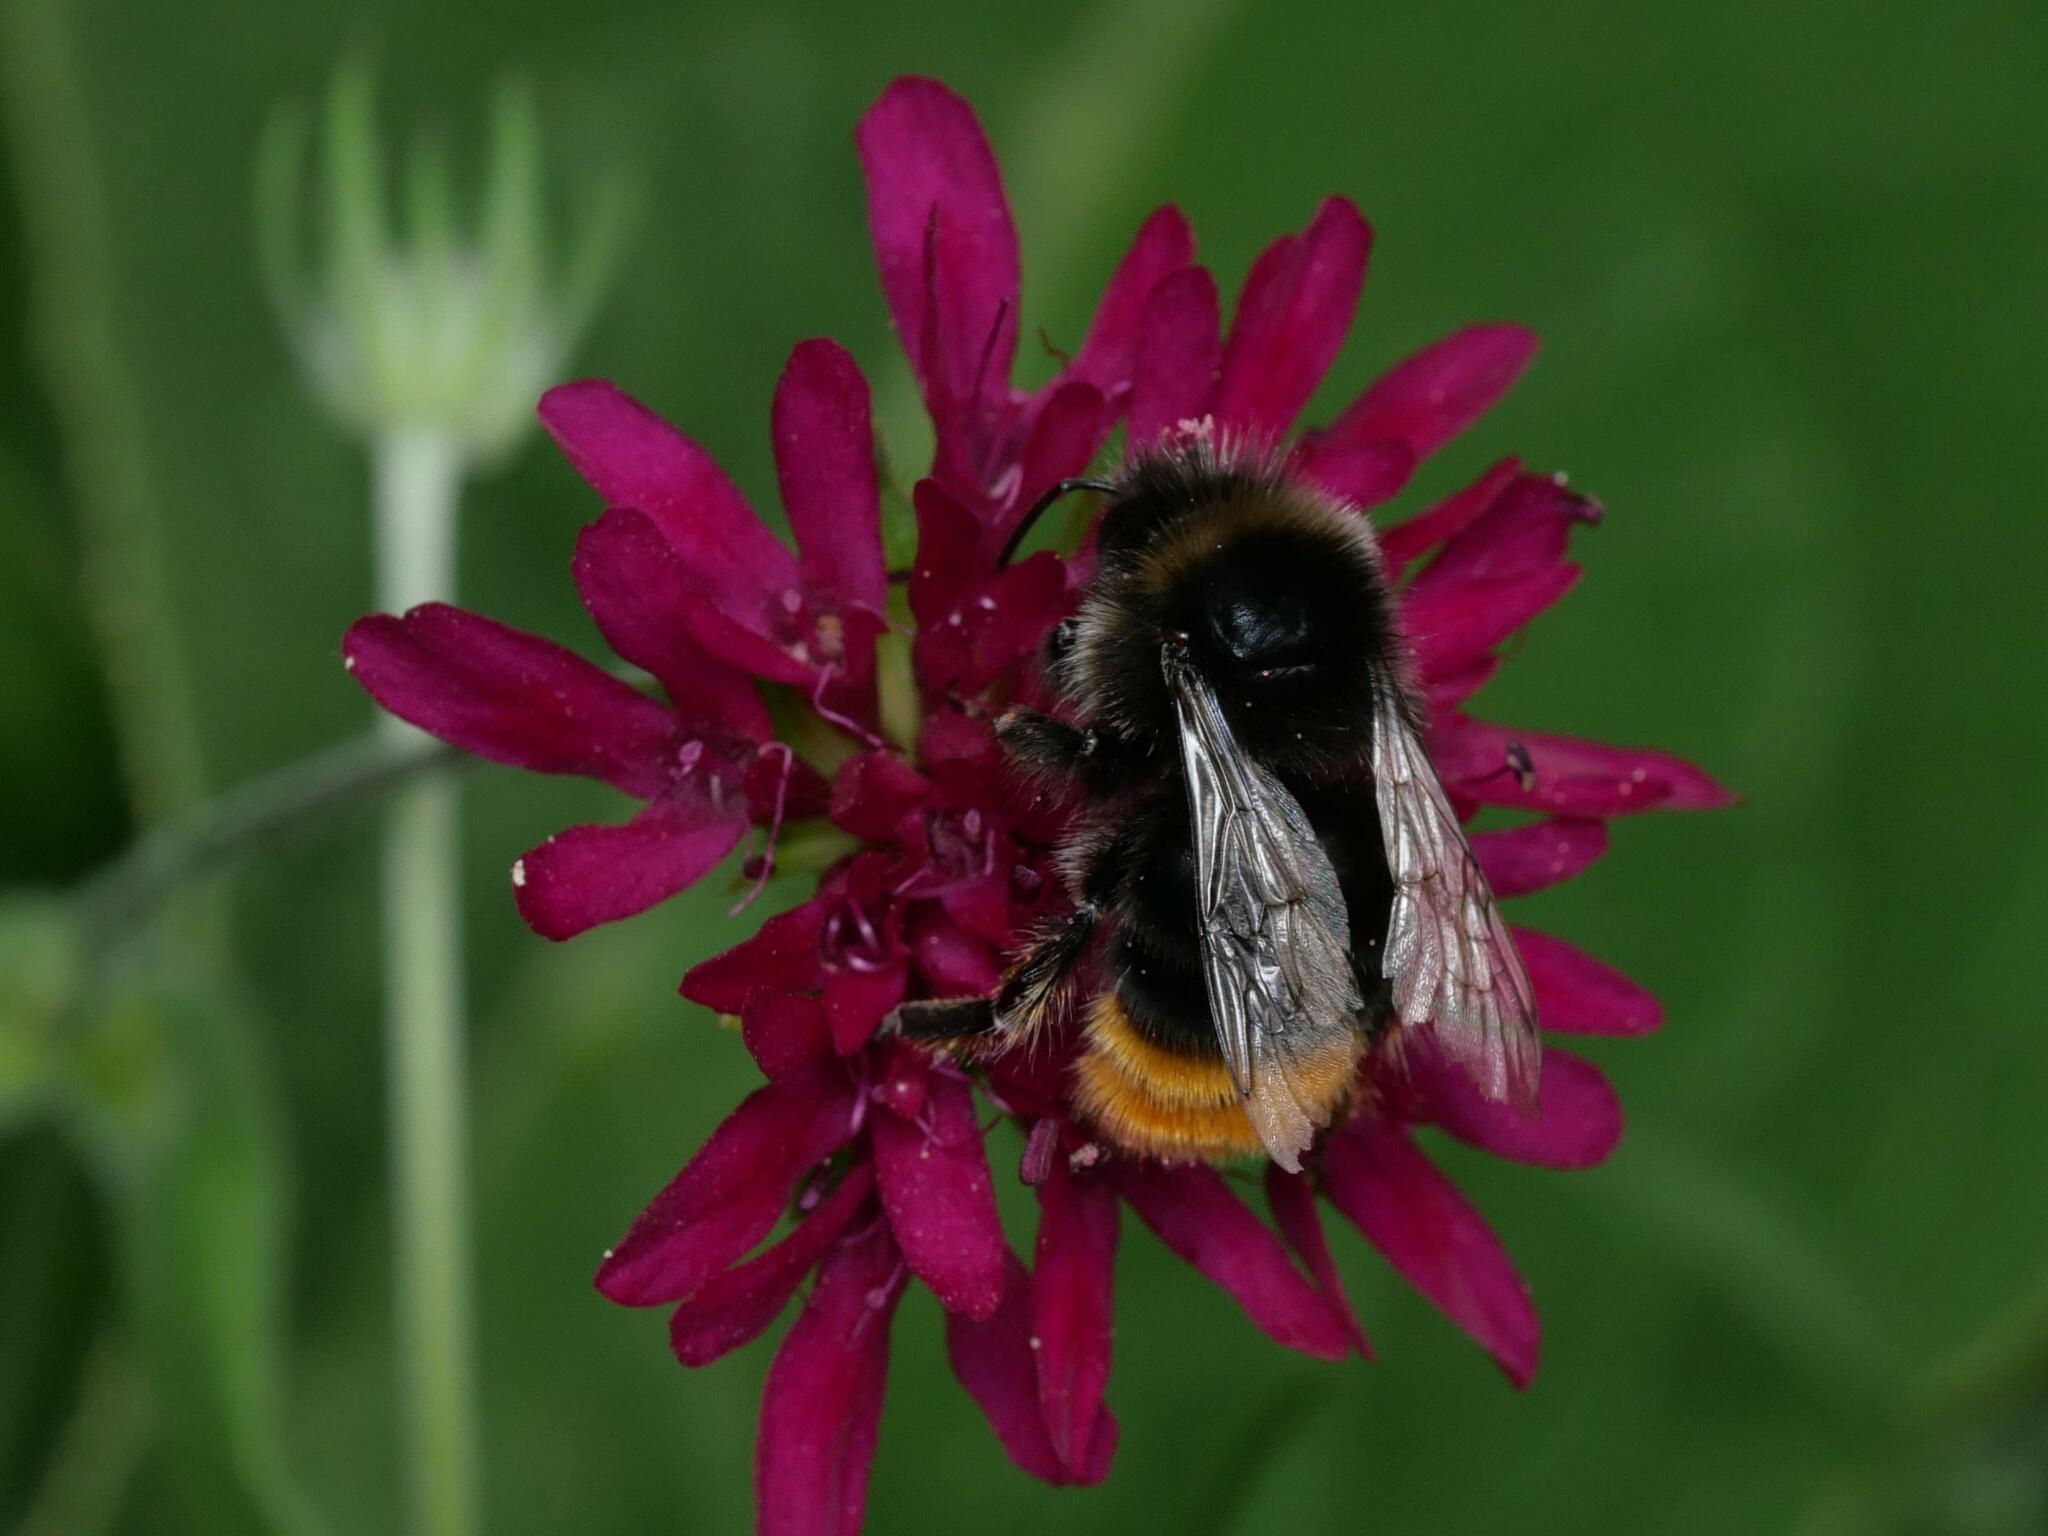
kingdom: Animalia
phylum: Arthropoda
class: Insecta
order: Hymenoptera
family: Apidae
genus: Bombus
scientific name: Bombus lapidarius
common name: Large red-tailed humble-bee
